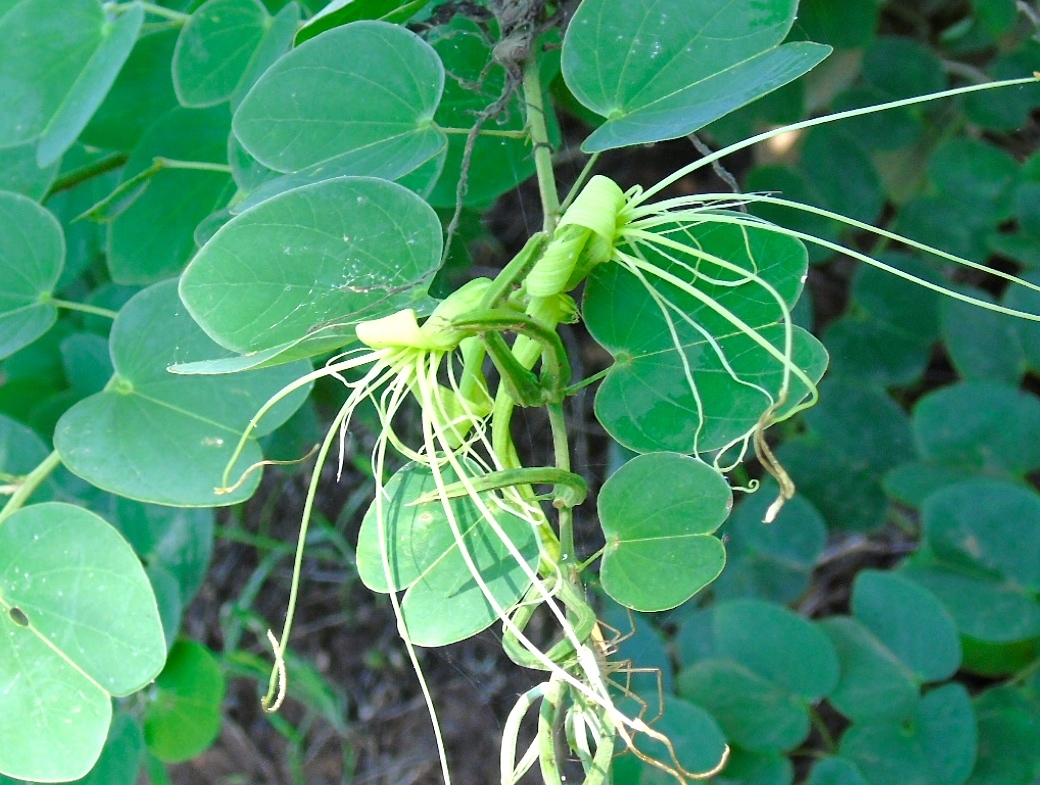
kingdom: Plantae
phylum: Tracheophyta
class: Magnoliopsida
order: Fabales
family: Fabaceae
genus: Bauhinia
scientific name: Bauhinia pauletia
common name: Railway-fence bauhinia
